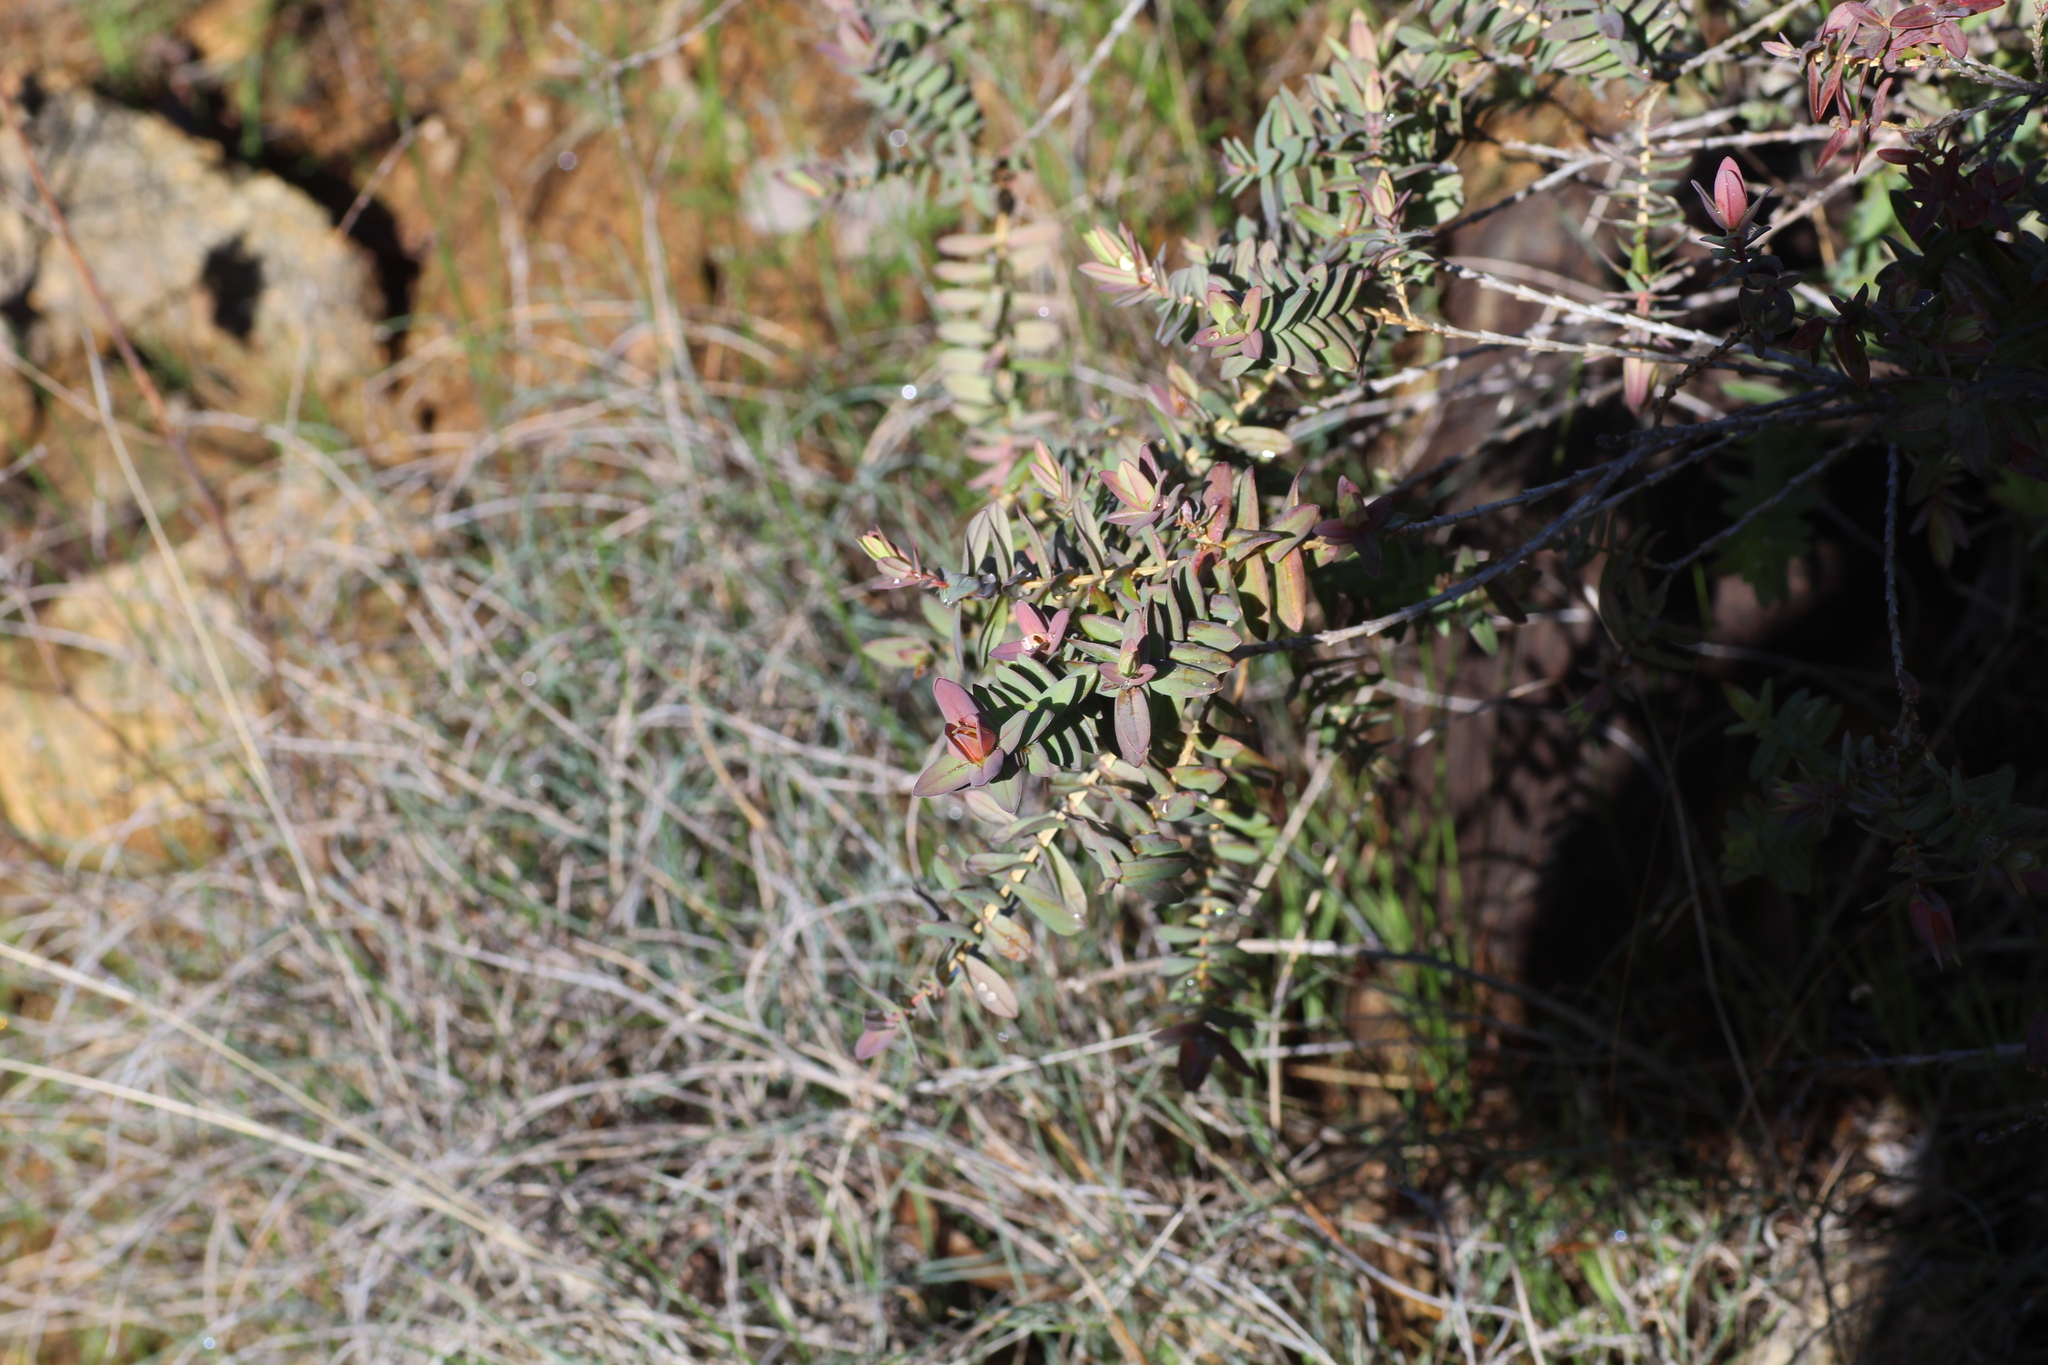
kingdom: Plantae
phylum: Tracheophyta
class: Magnoliopsida
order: Myrtales
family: Myrtaceae
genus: Darwinia
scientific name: Darwinia citriodora
